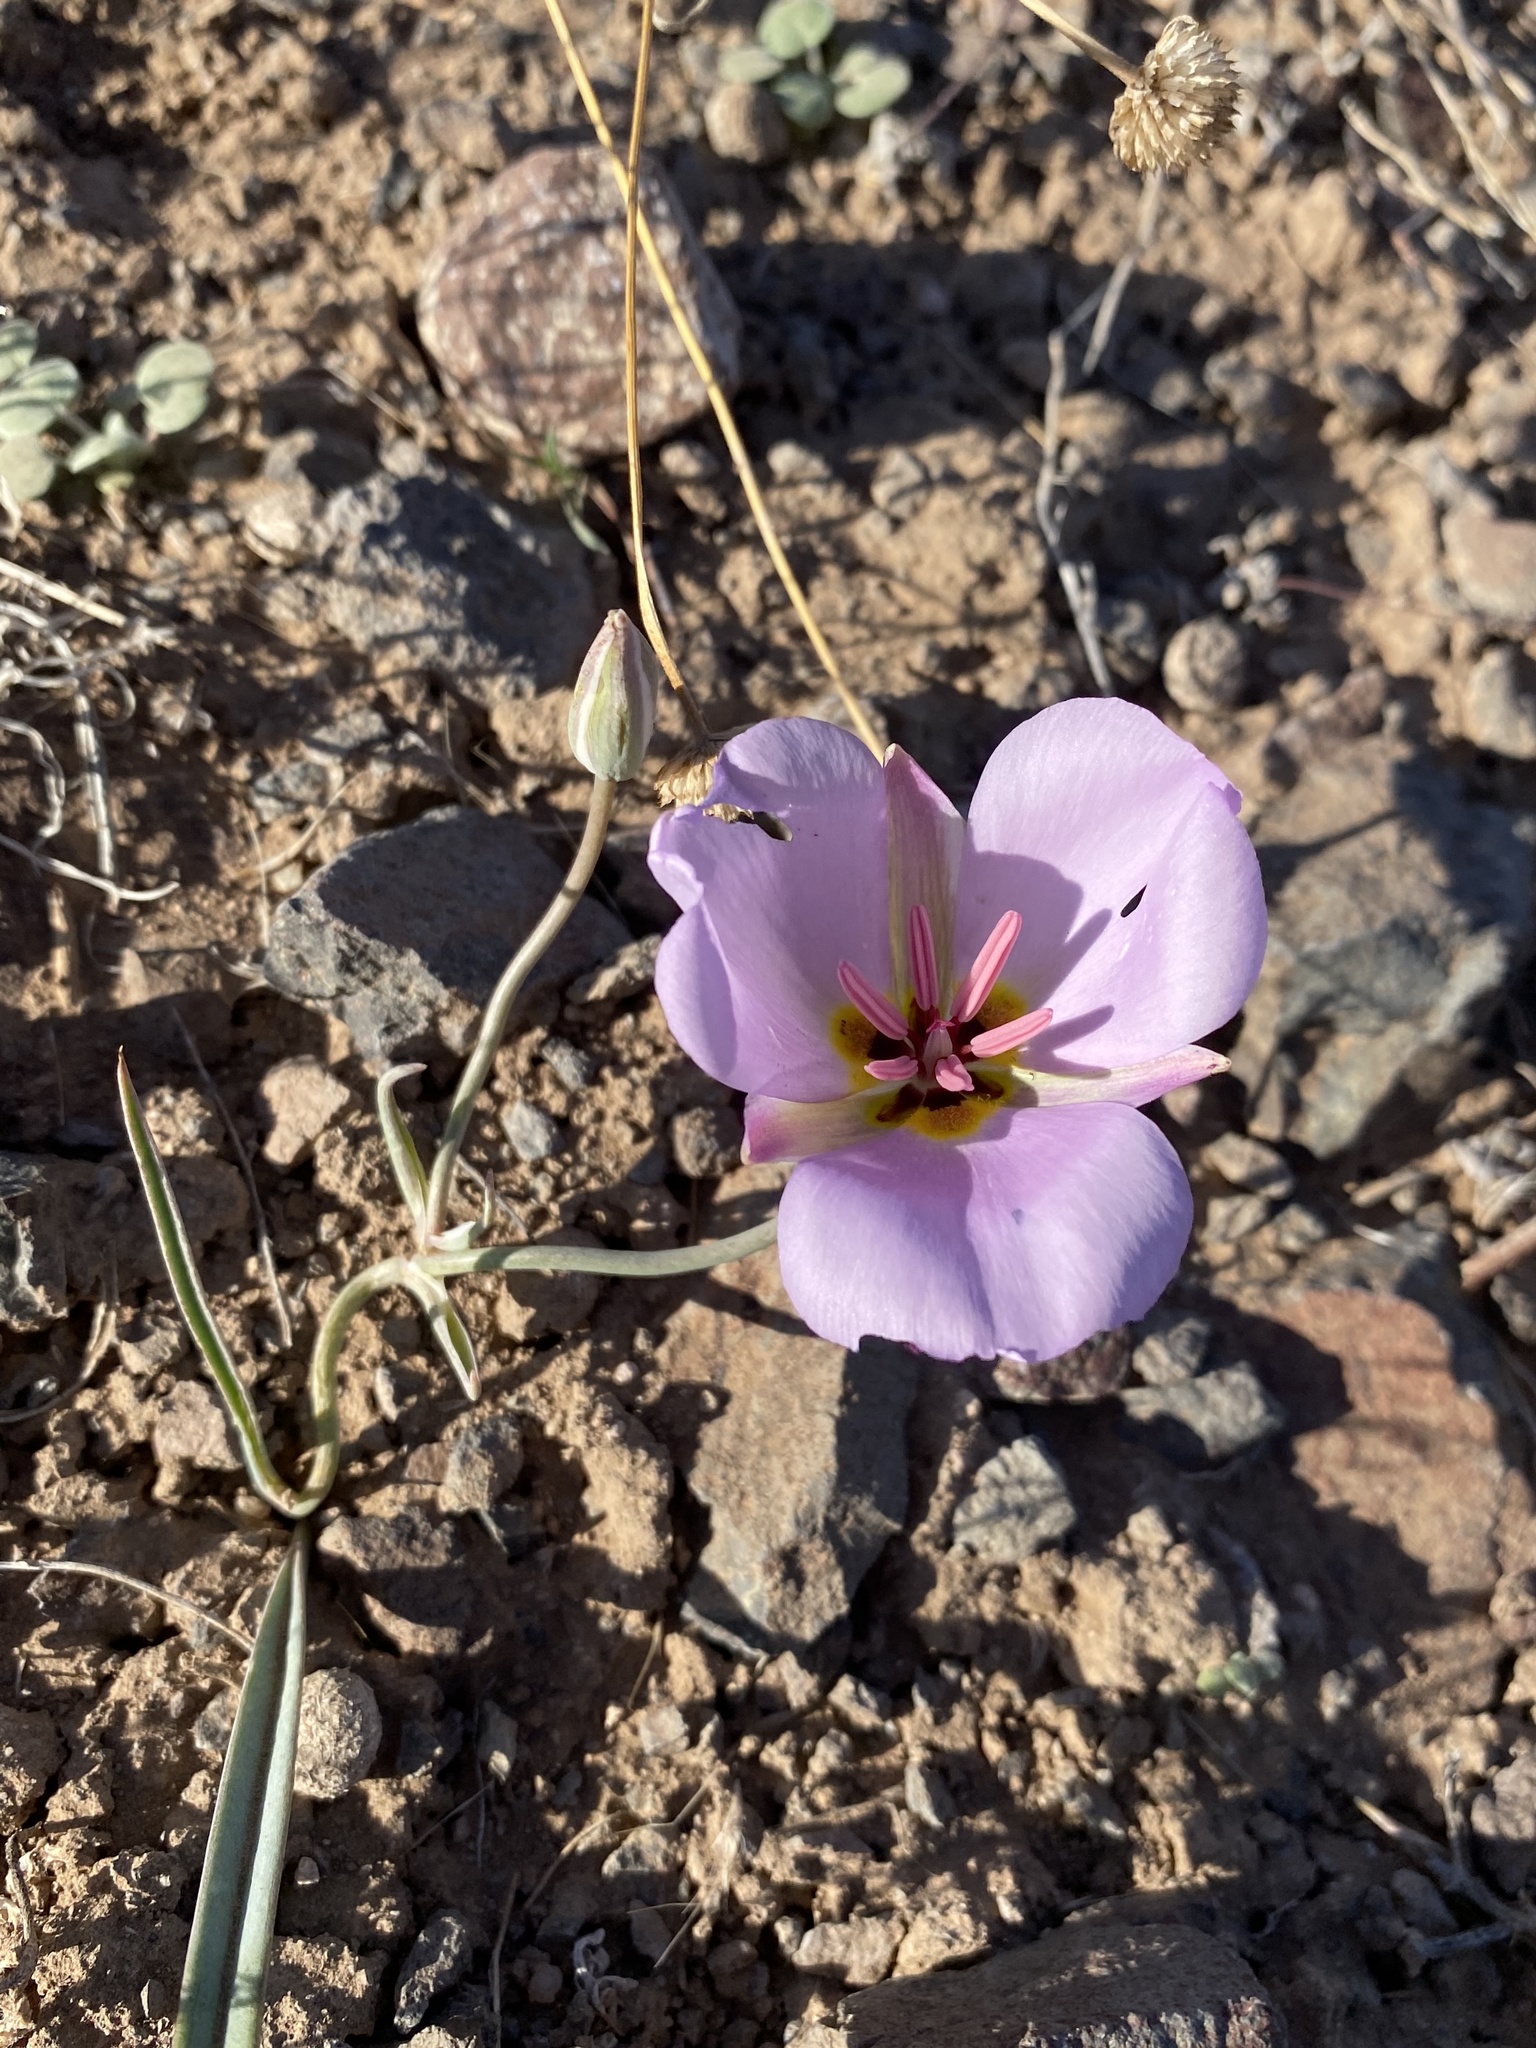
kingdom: Plantae
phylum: Tracheophyta
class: Liliopsida
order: Liliales
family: Liliaceae
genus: Calochortus
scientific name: Calochortus flexuosus
